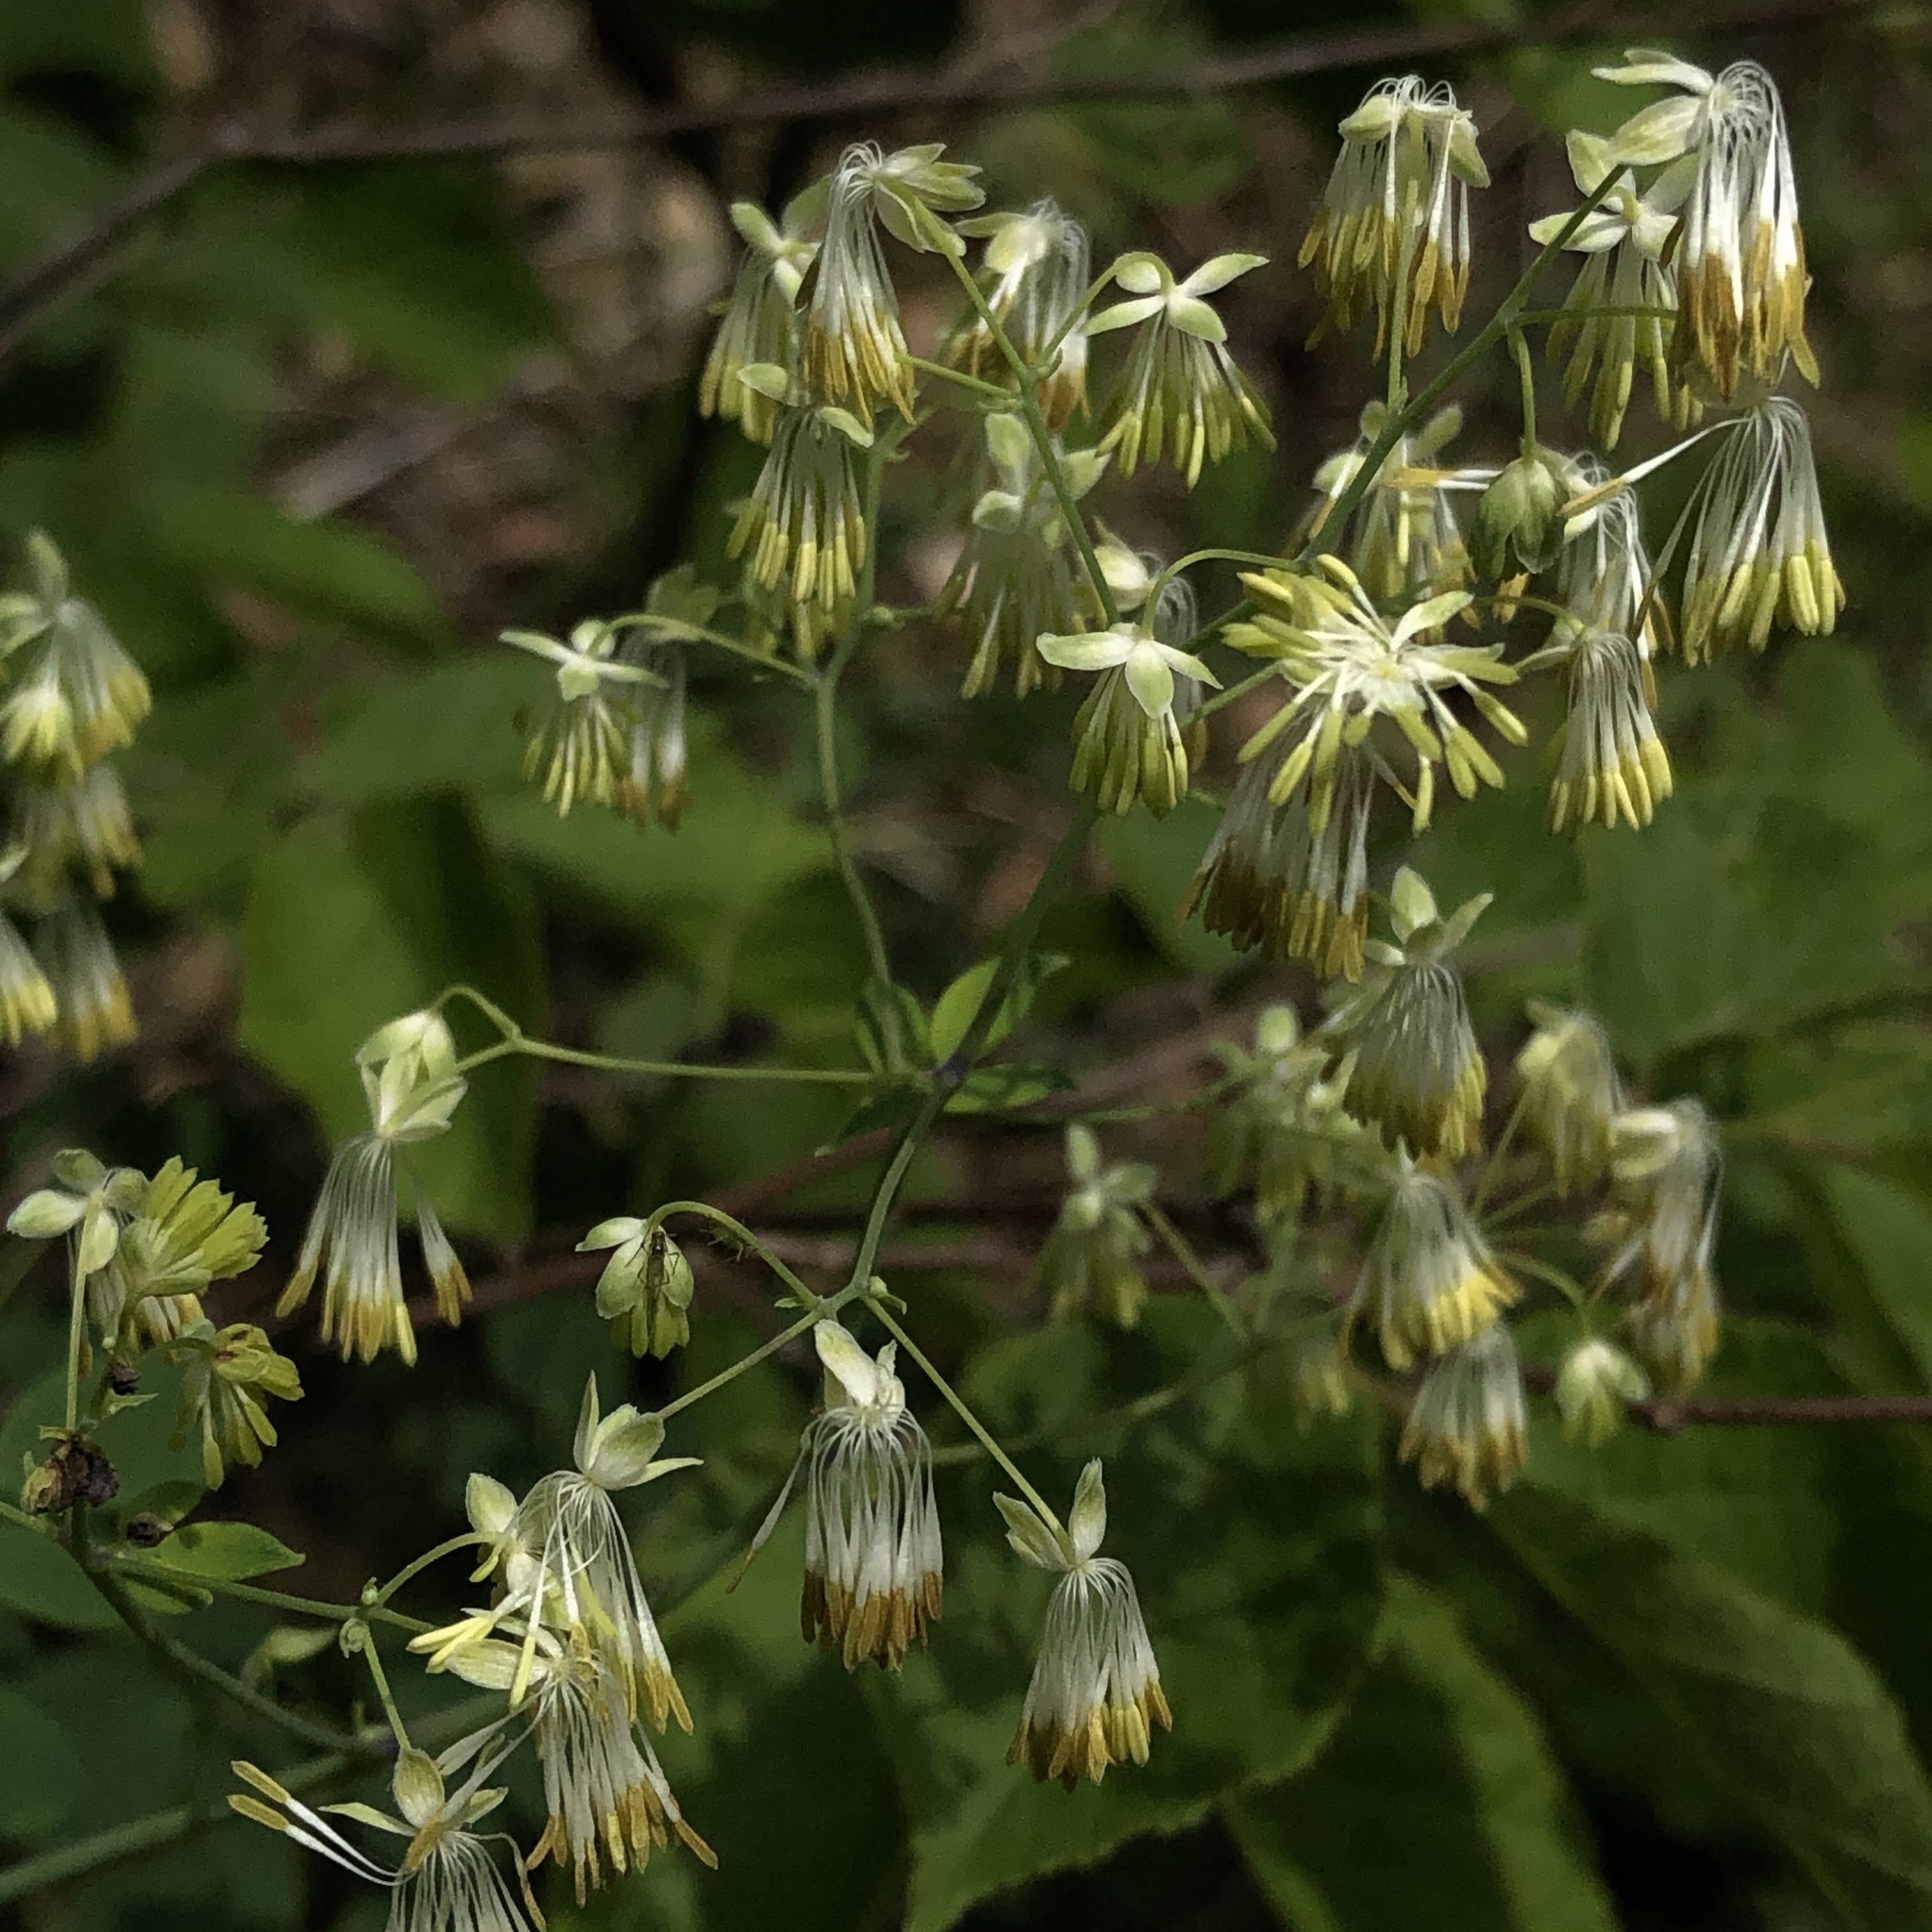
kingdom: Plantae
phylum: Tracheophyta
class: Magnoliopsida
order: Ranunculales
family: Ranunculaceae
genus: Thalictrum
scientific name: Thalictrum dioicum
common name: Early meadow-rue
